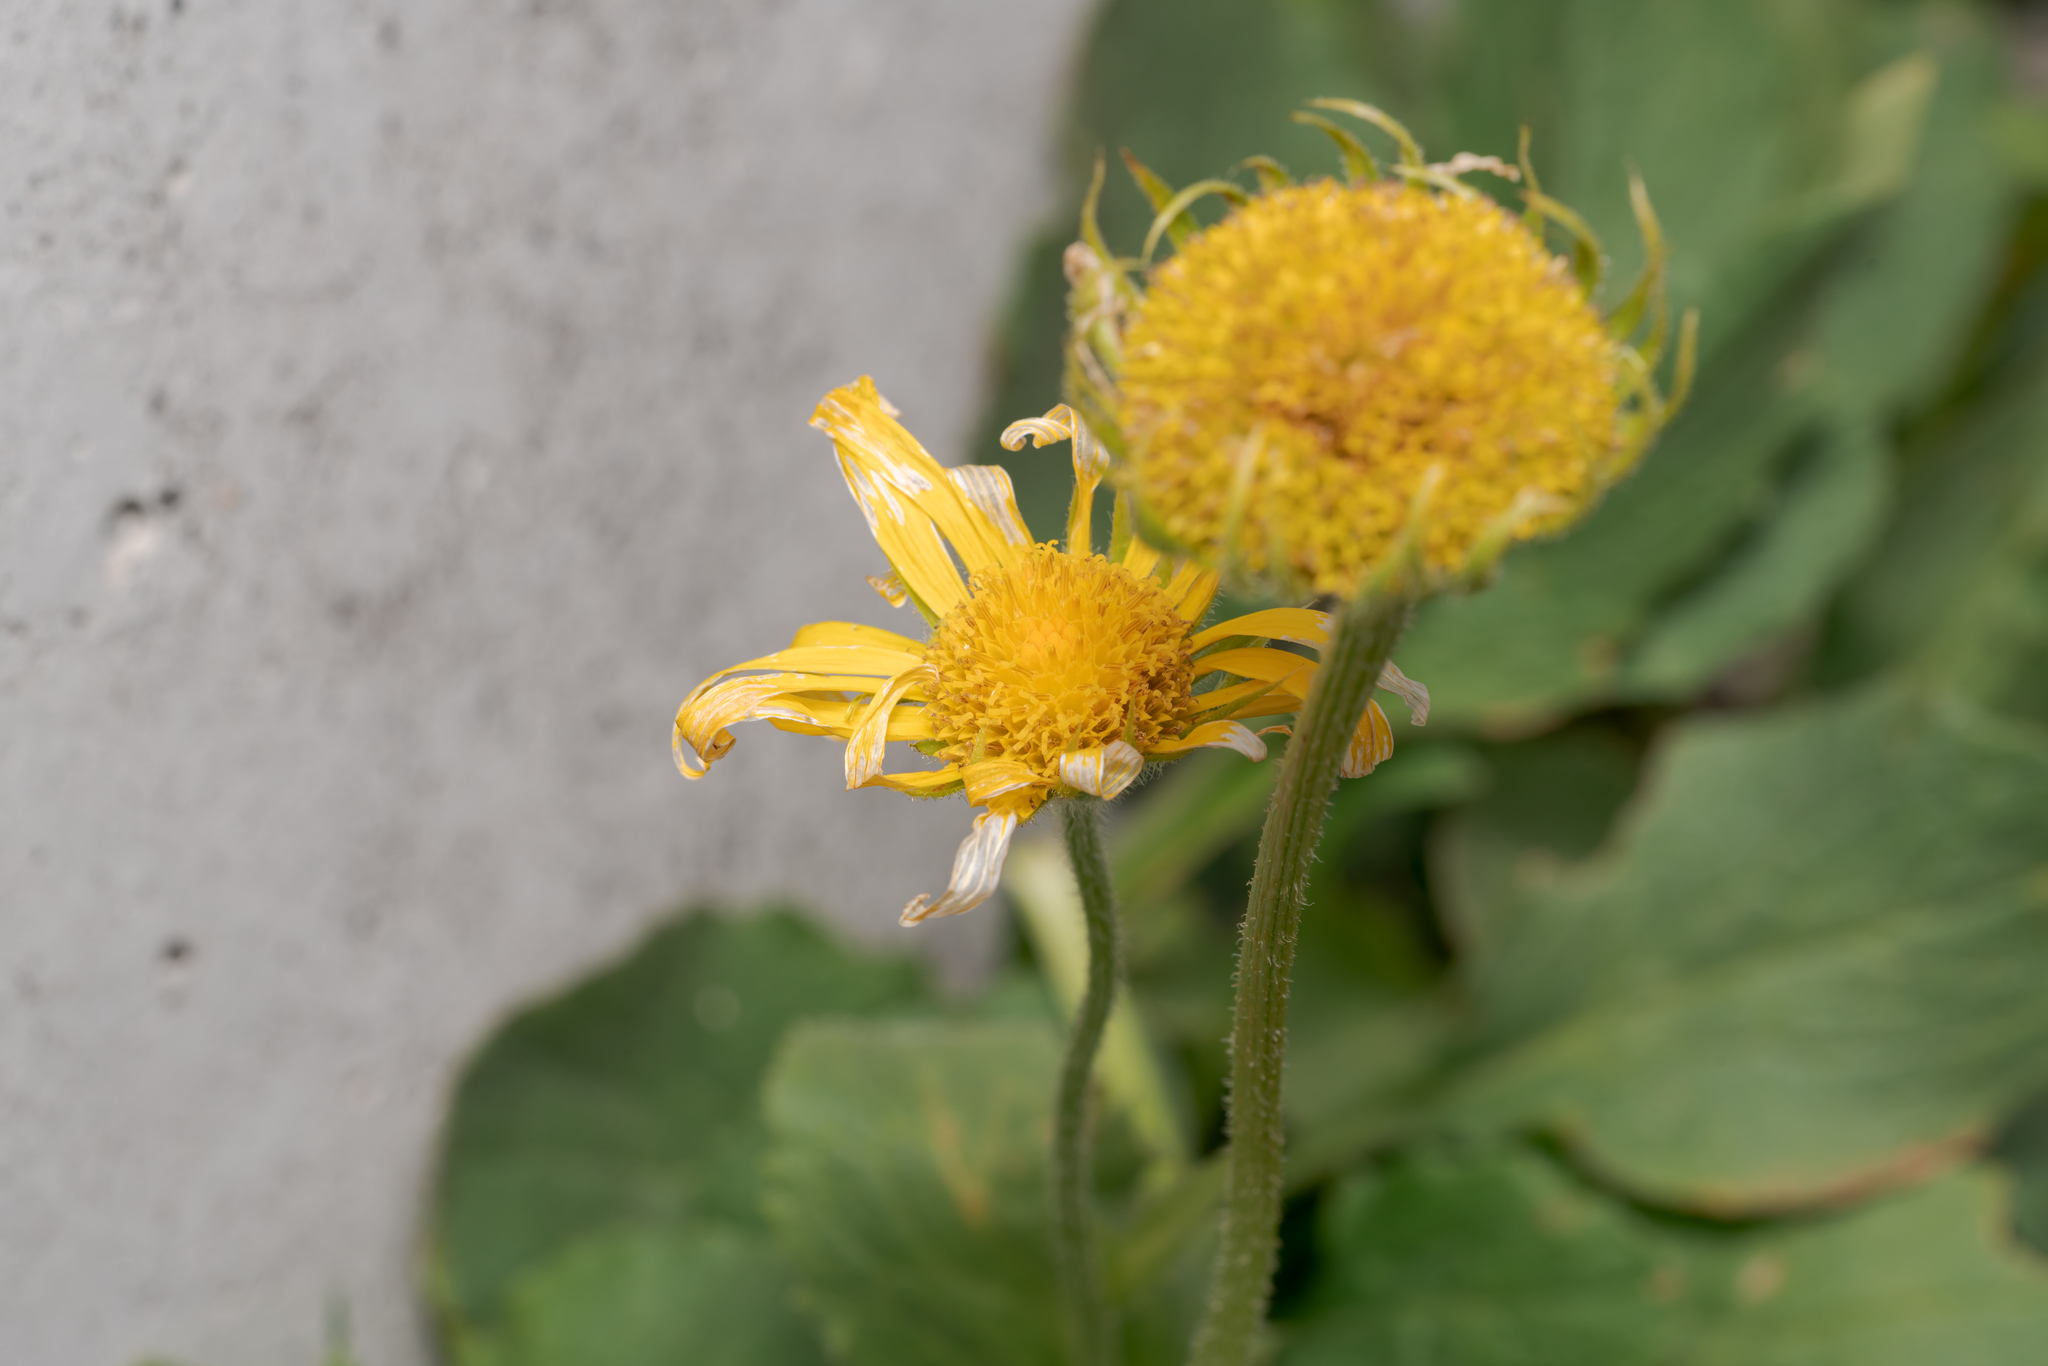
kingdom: Plantae
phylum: Tracheophyta
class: Magnoliopsida
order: Asterales
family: Asteraceae
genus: Doronicum
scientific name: Doronicum grandiflorum
